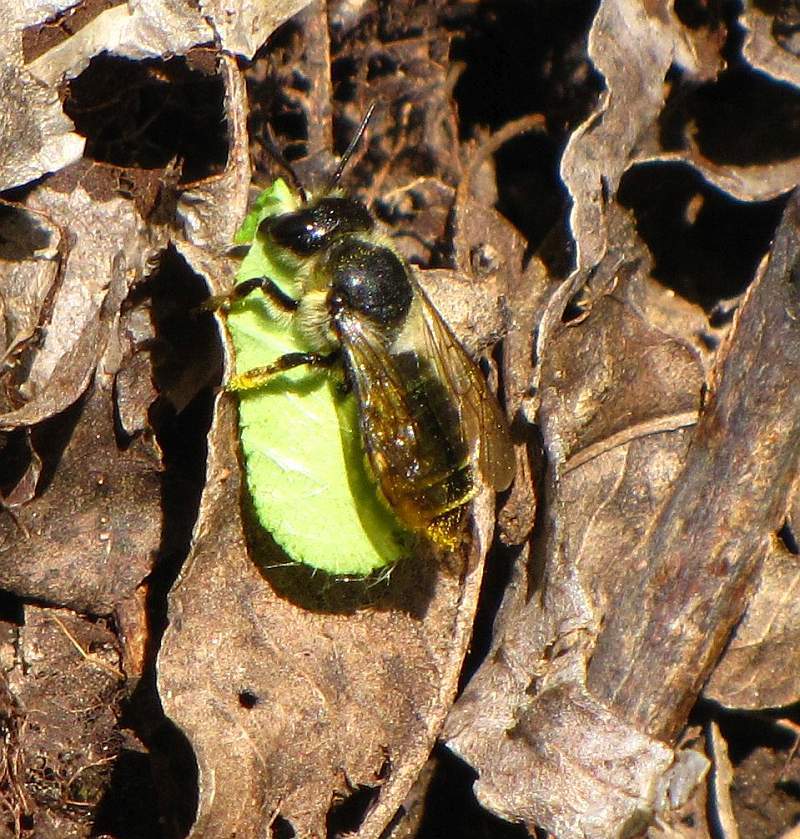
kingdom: Animalia
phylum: Arthropoda
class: Insecta
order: Hymenoptera
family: Megachilidae
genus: Megachile
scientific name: Megachile frigida
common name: Frigid leafcutter
